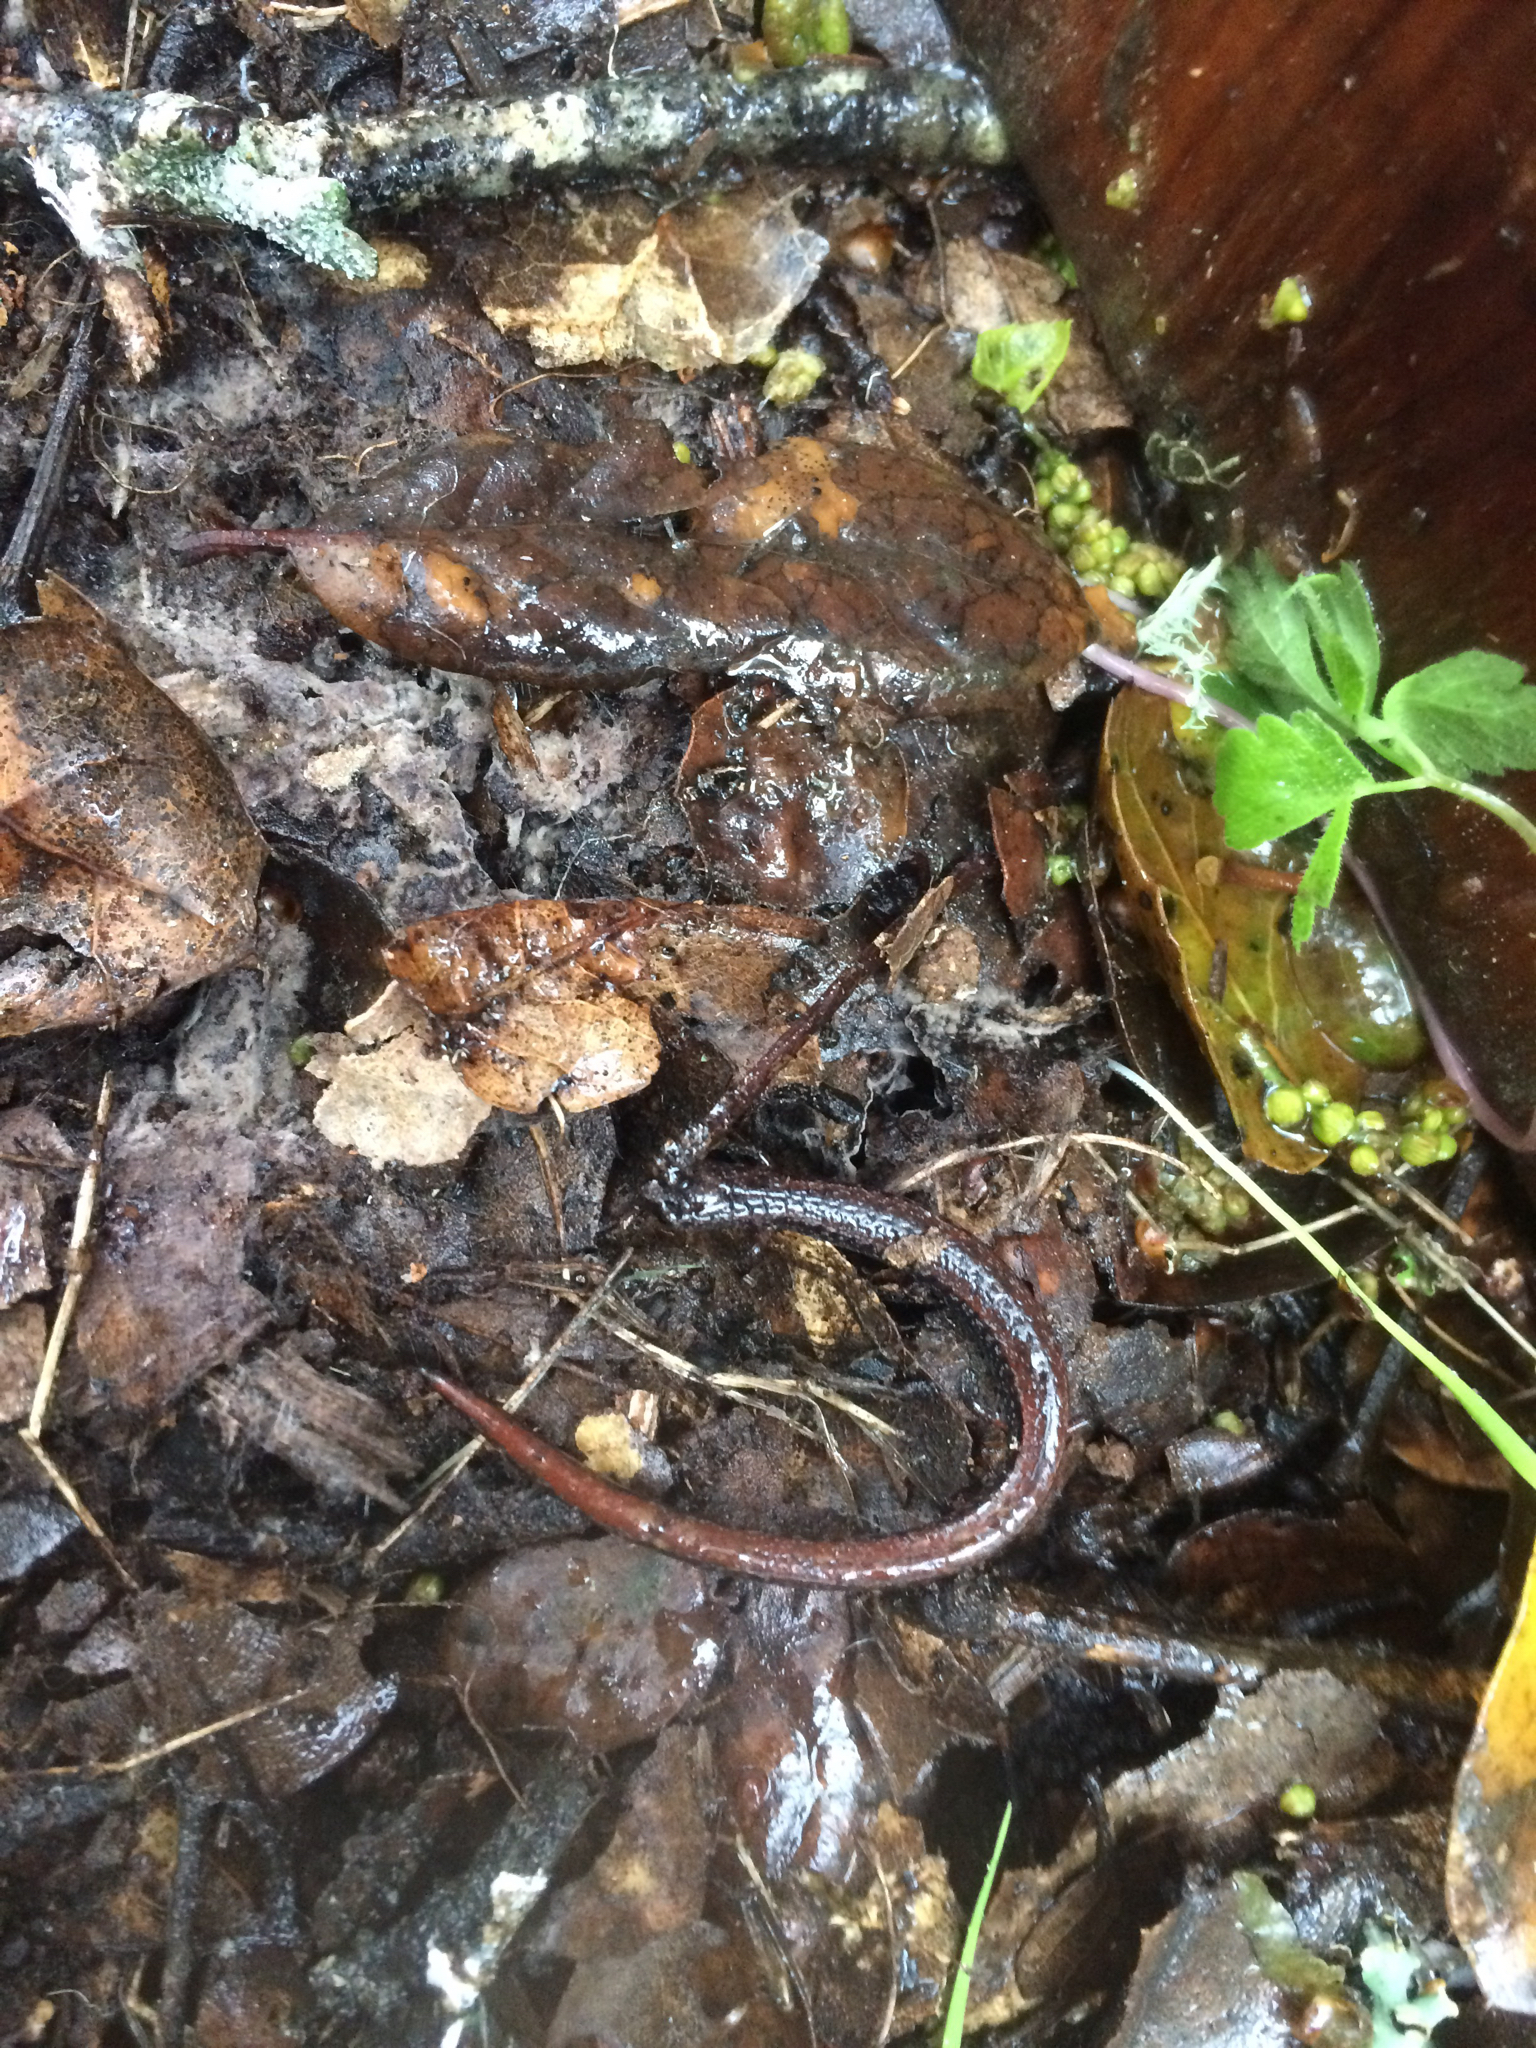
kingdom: Animalia
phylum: Chordata
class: Amphibia
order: Caudata
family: Plethodontidae
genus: Batrachoseps
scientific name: Batrachoseps attenuatus
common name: California slender salamander
